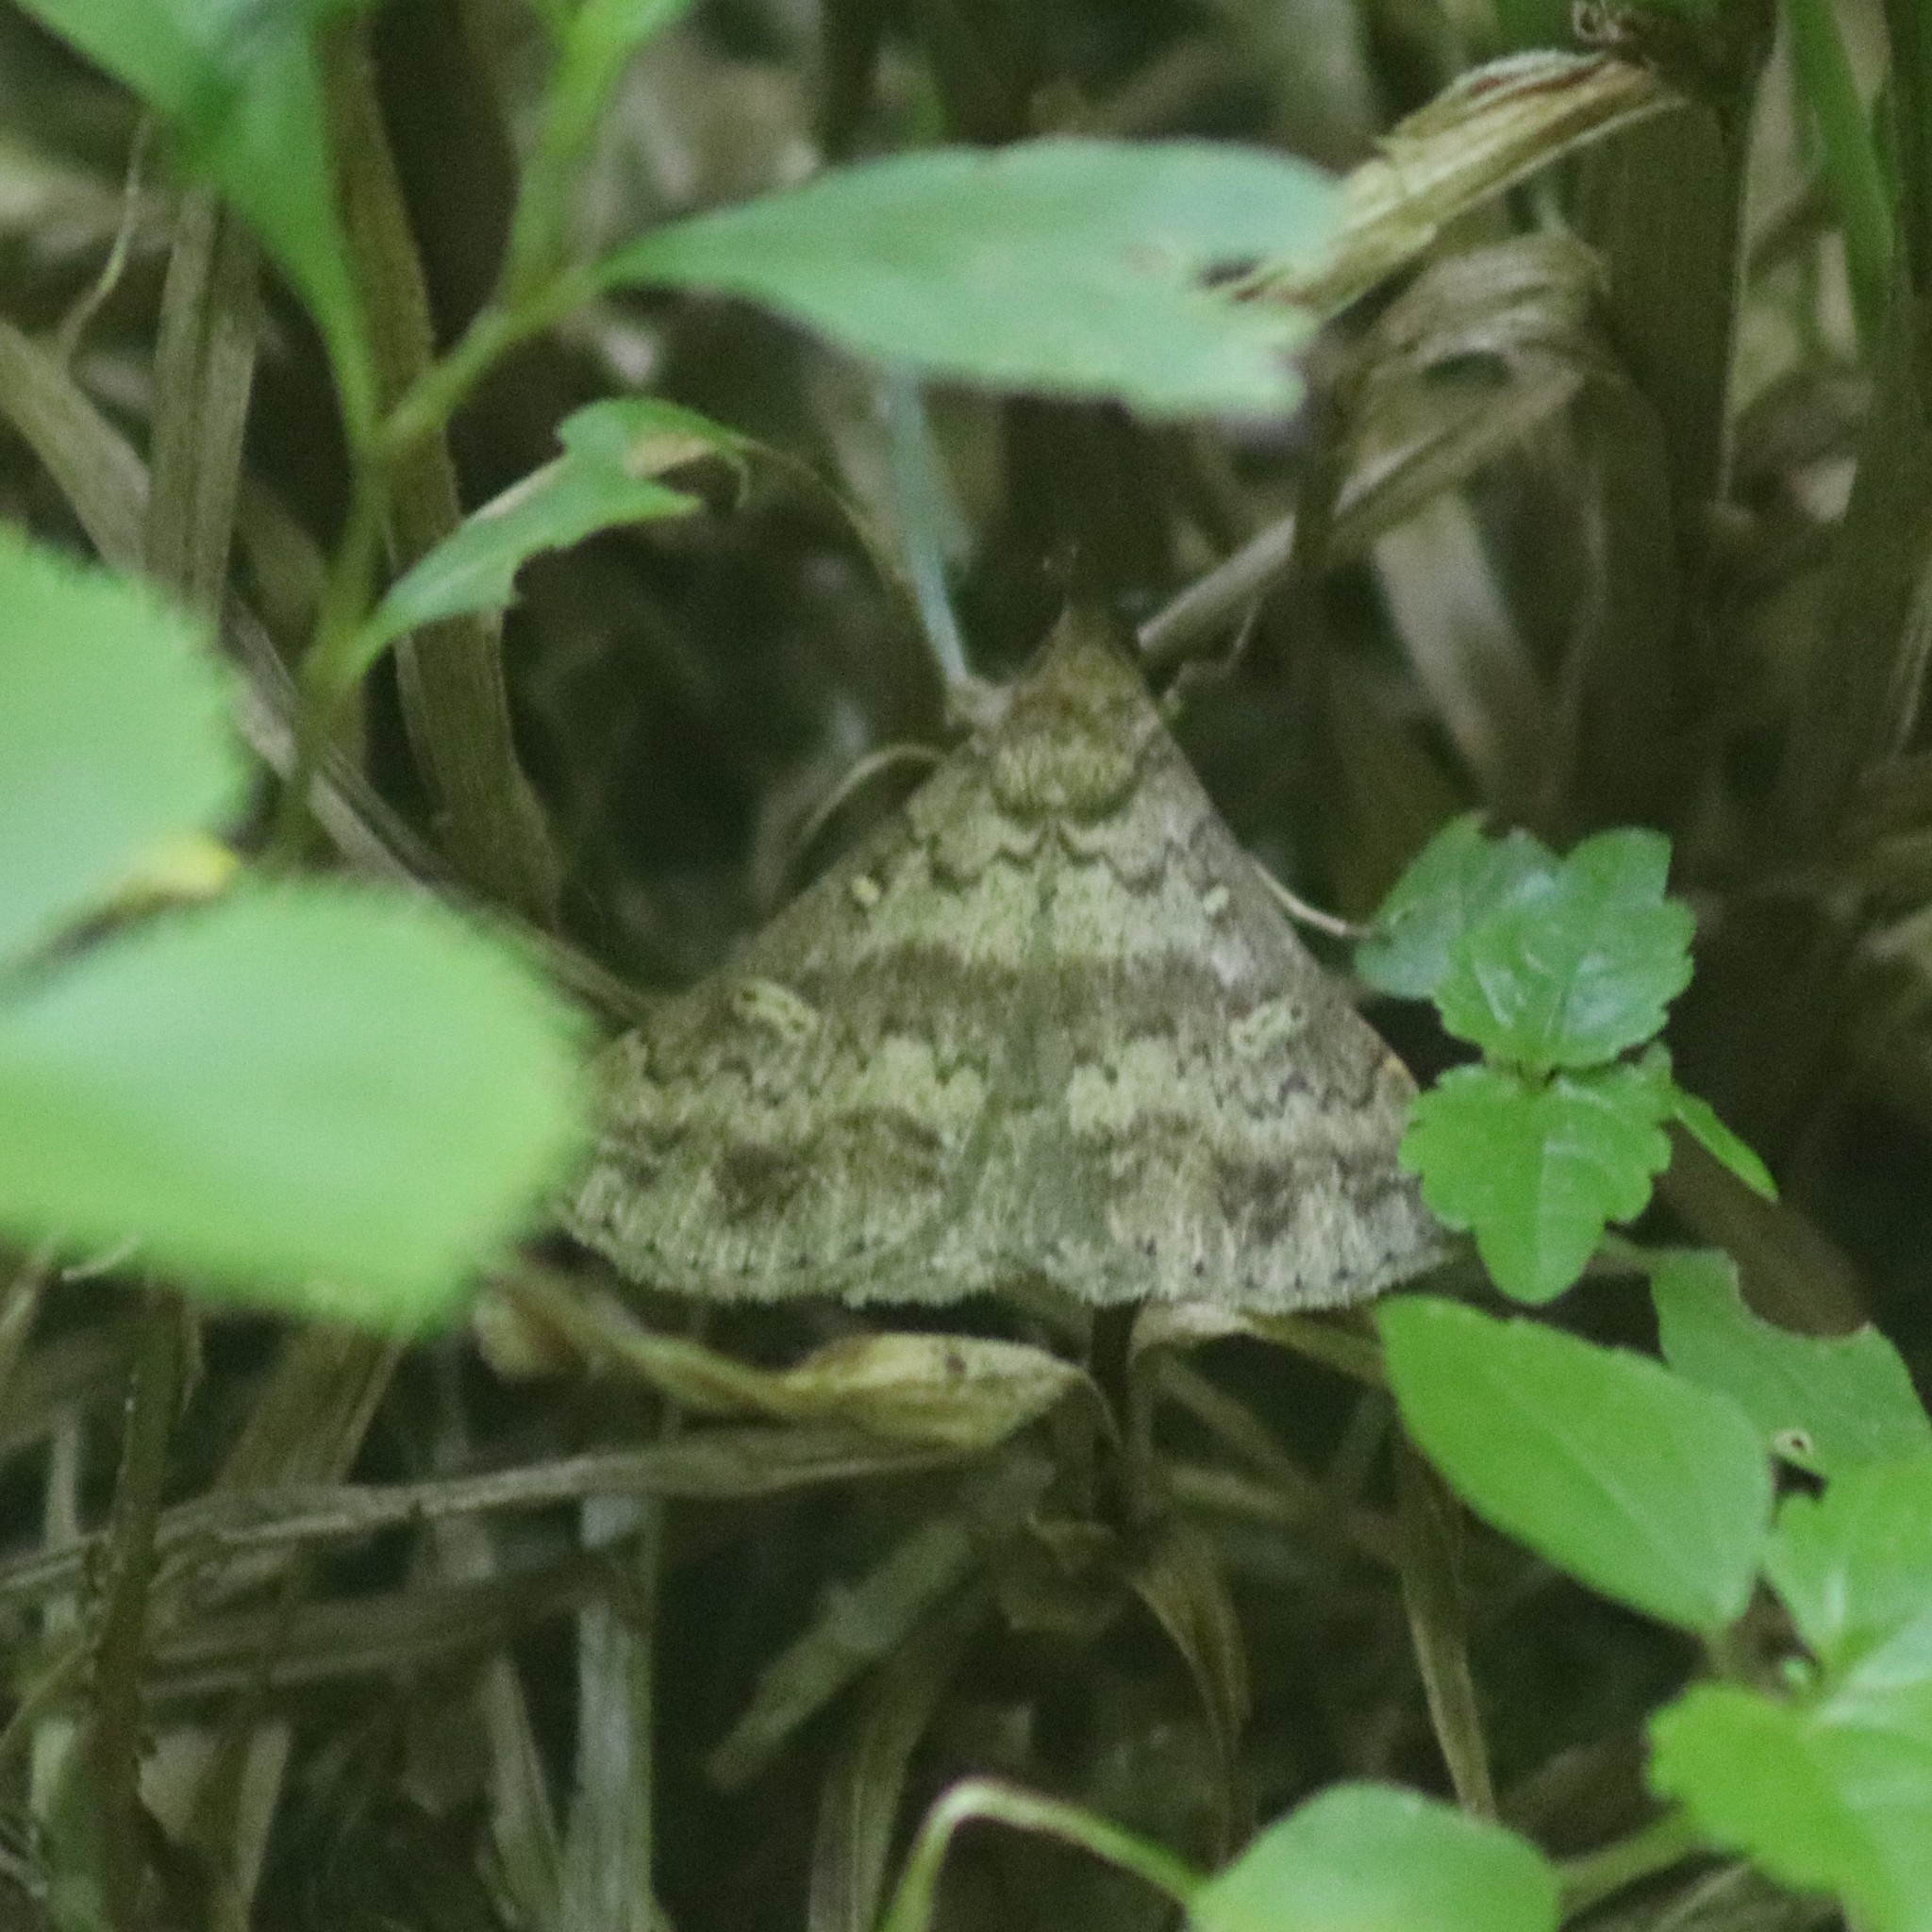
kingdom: Animalia
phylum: Arthropoda
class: Insecta
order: Lepidoptera
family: Erebidae
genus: Renia
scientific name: Renia discoloralis
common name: Discolored renia moth
